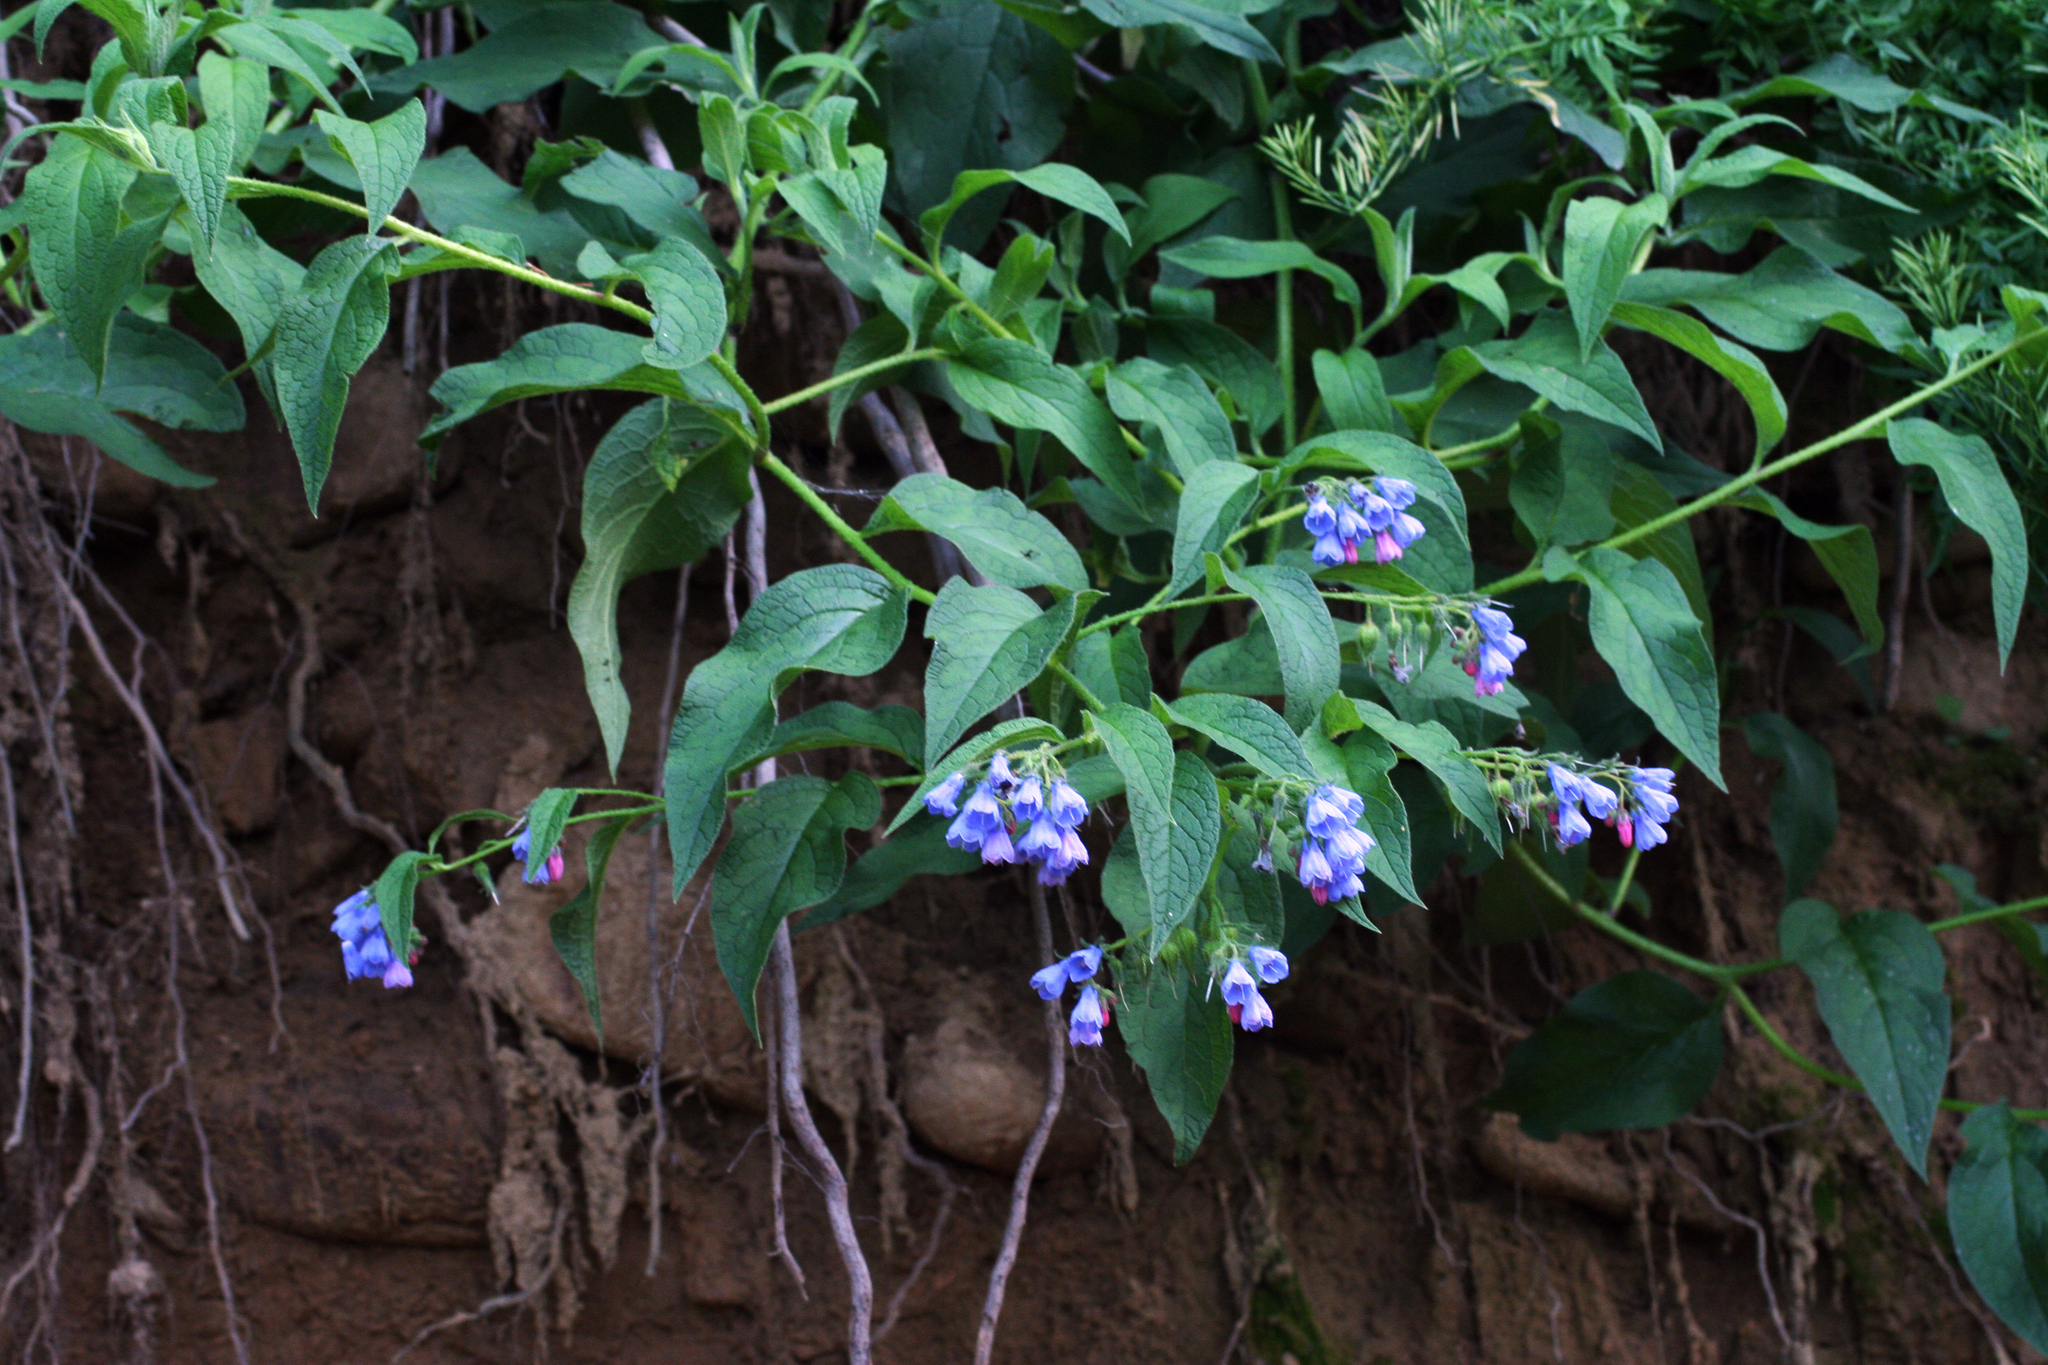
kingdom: Plantae
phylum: Tracheophyta
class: Magnoliopsida
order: Boraginales
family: Boraginaceae
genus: Symphytum
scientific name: Symphytum asperum
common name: Prickly comfrey
